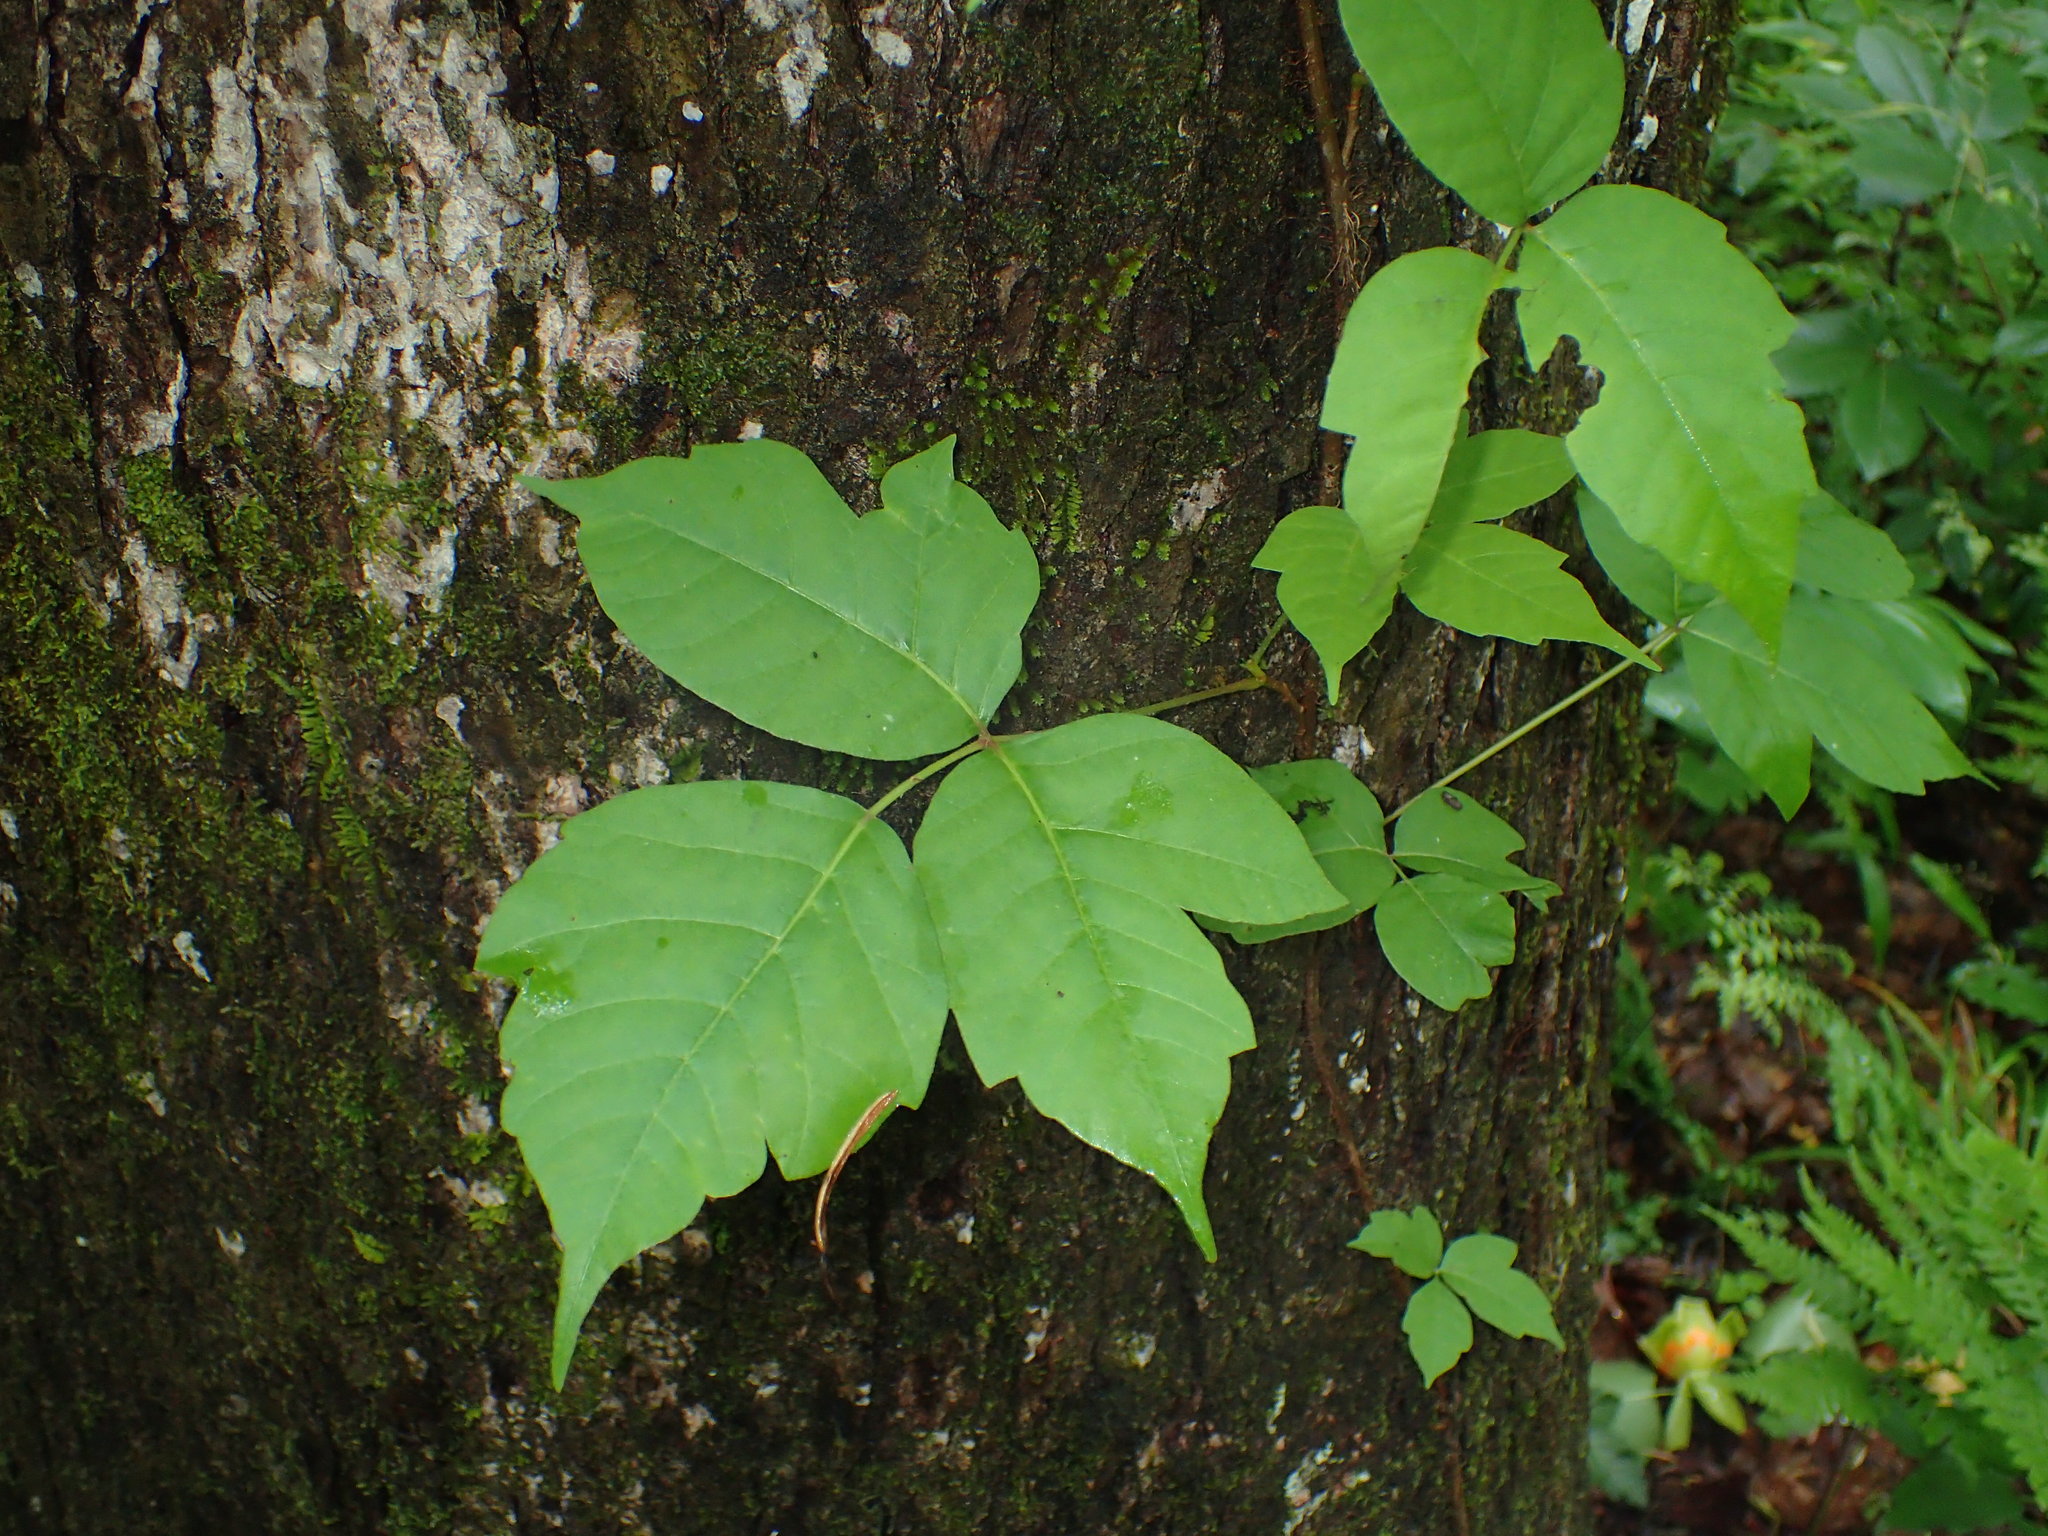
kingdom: Plantae
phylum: Tracheophyta
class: Magnoliopsida
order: Sapindales
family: Anacardiaceae
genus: Toxicodendron
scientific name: Toxicodendron radicans
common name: Poison ivy
